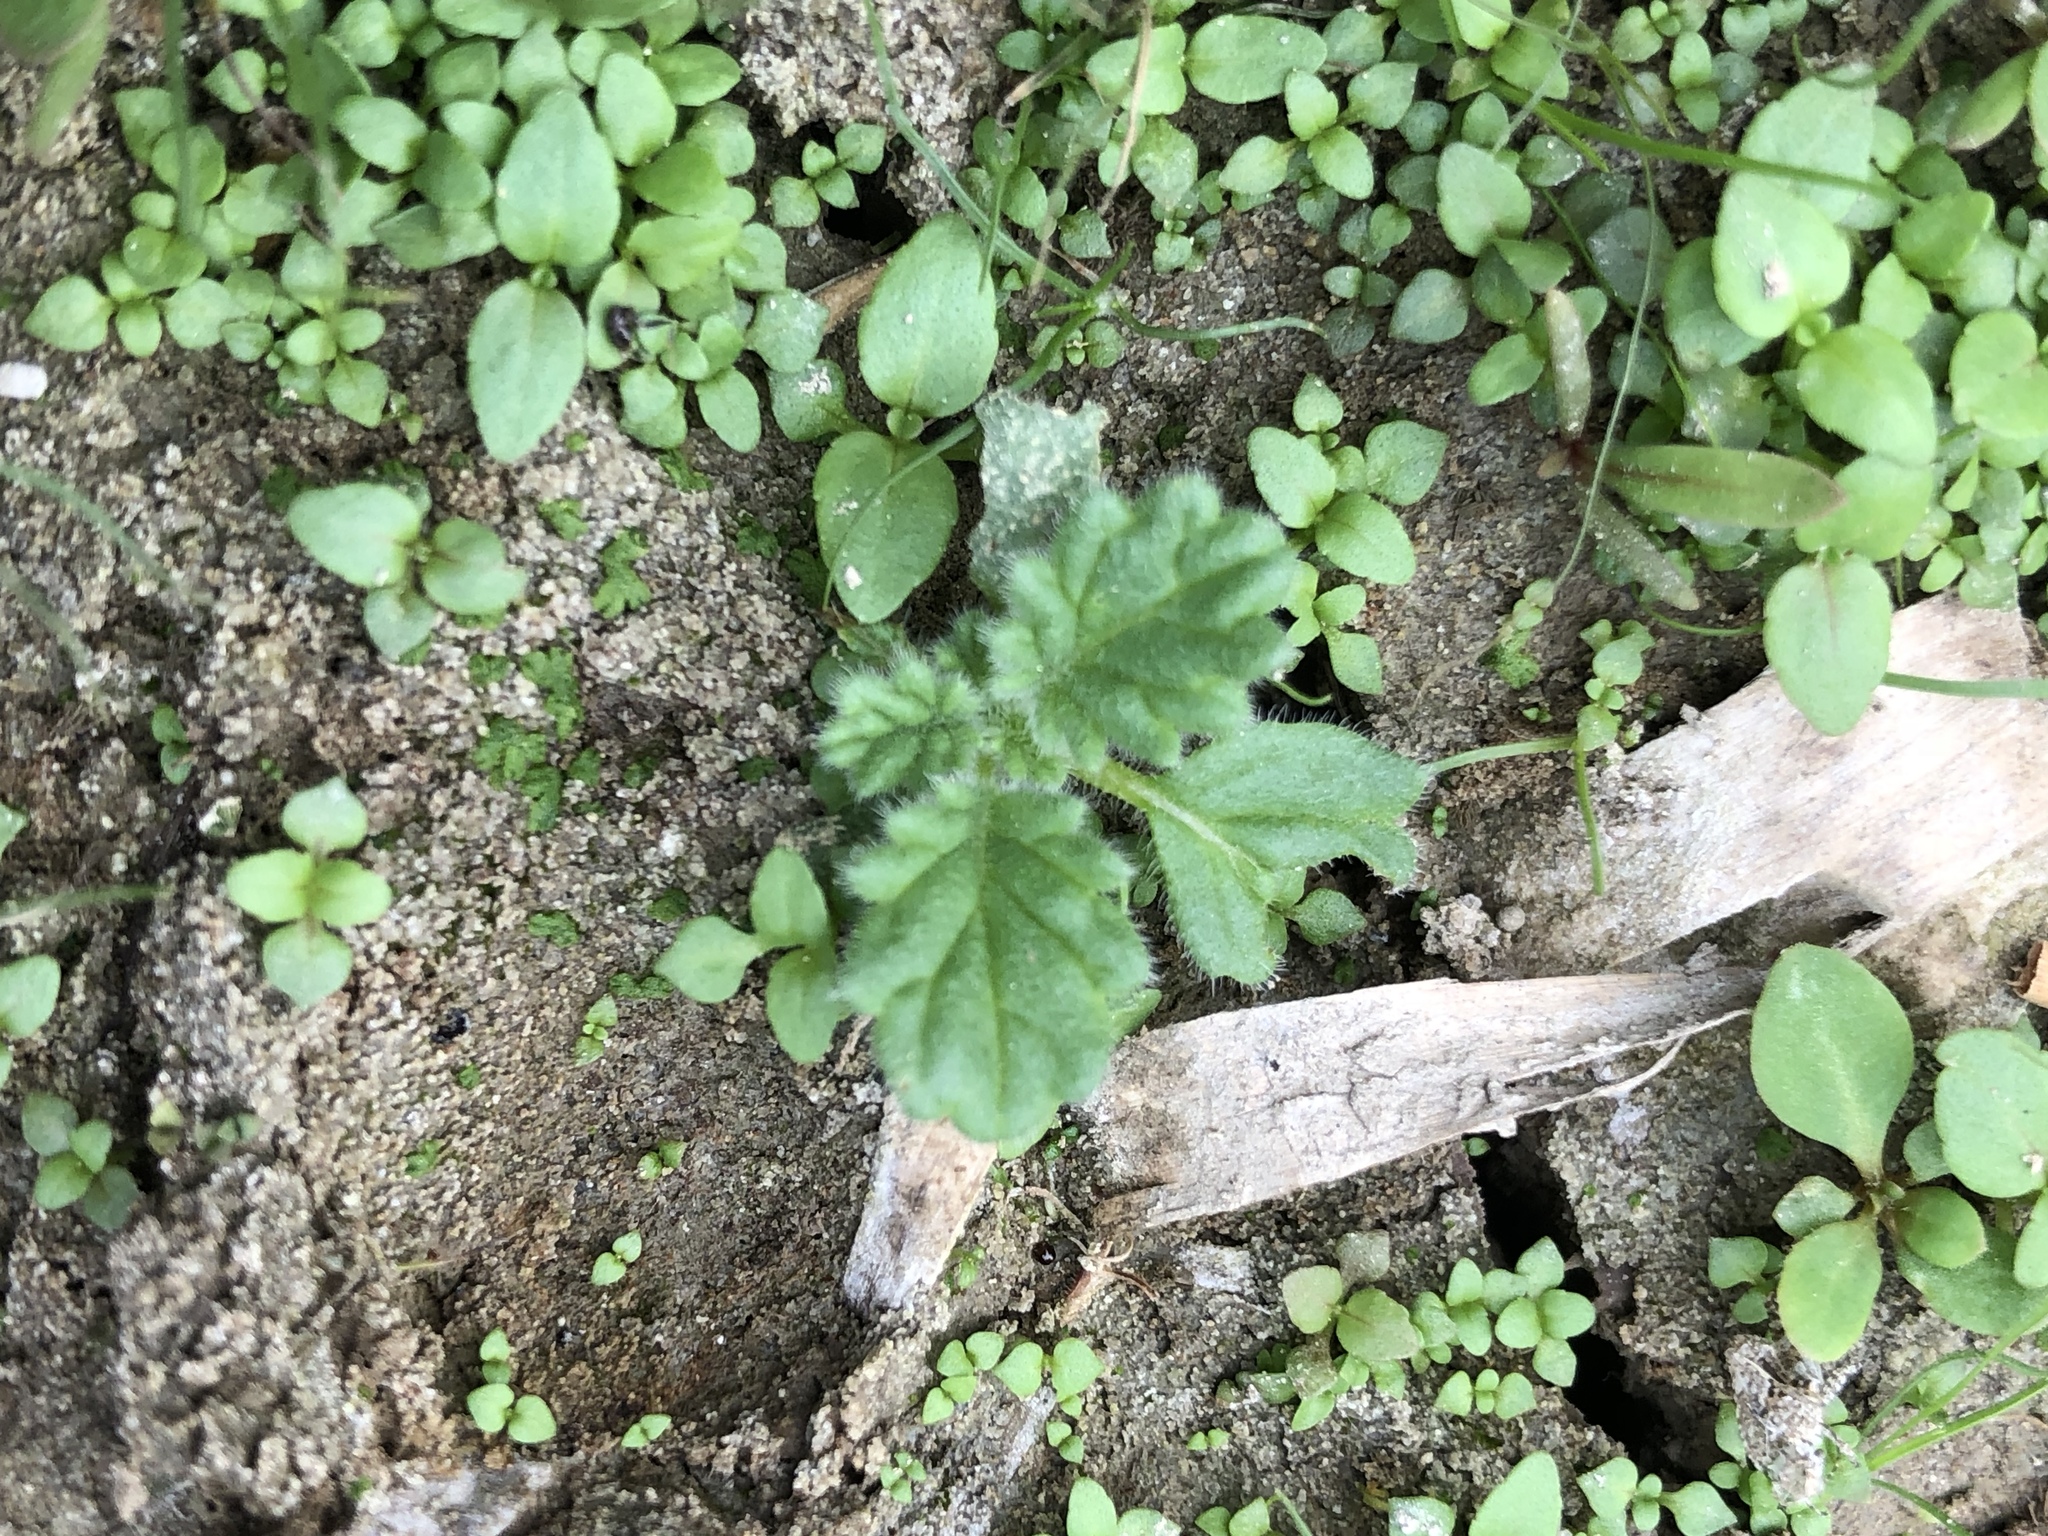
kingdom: Plantae
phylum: Tracheophyta
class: Magnoliopsida
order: Boraginales
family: Coldeniaceae
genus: Coldenia
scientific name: Coldenia procumbens
